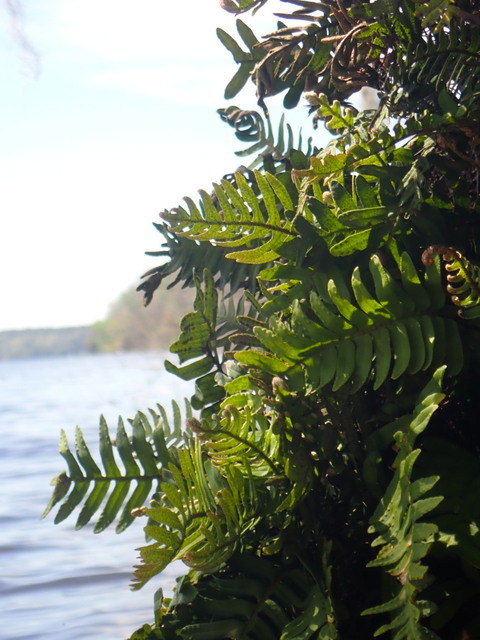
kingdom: Plantae
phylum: Tracheophyta
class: Polypodiopsida
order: Polypodiales
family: Polypodiaceae
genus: Pleopeltis
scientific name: Pleopeltis michauxiana
